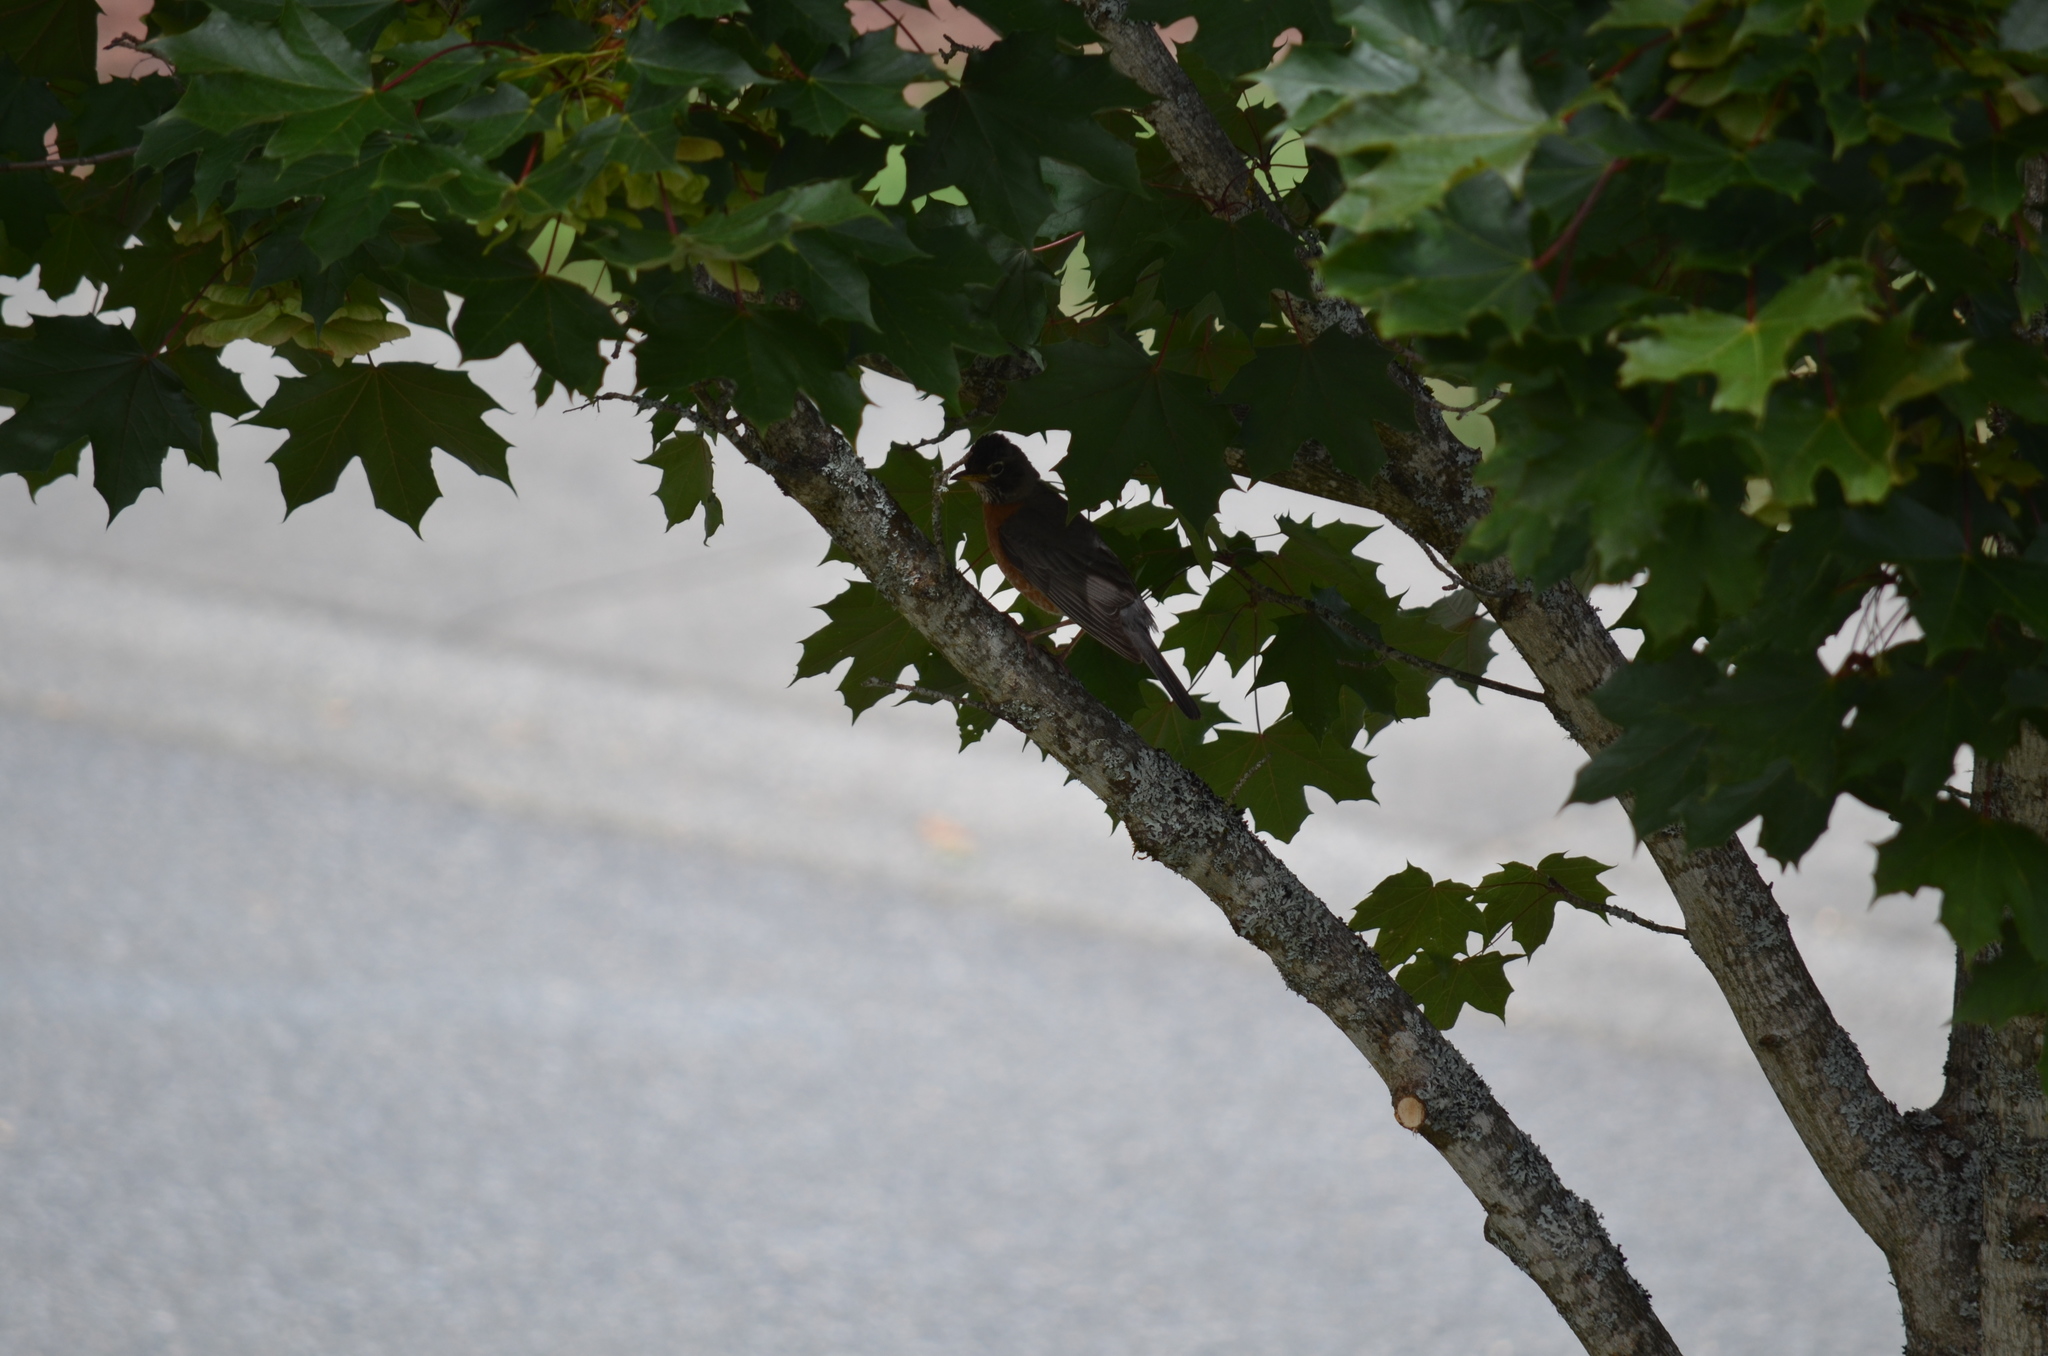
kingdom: Animalia
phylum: Chordata
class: Aves
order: Passeriformes
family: Turdidae
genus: Turdus
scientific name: Turdus migratorius
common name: American robin
